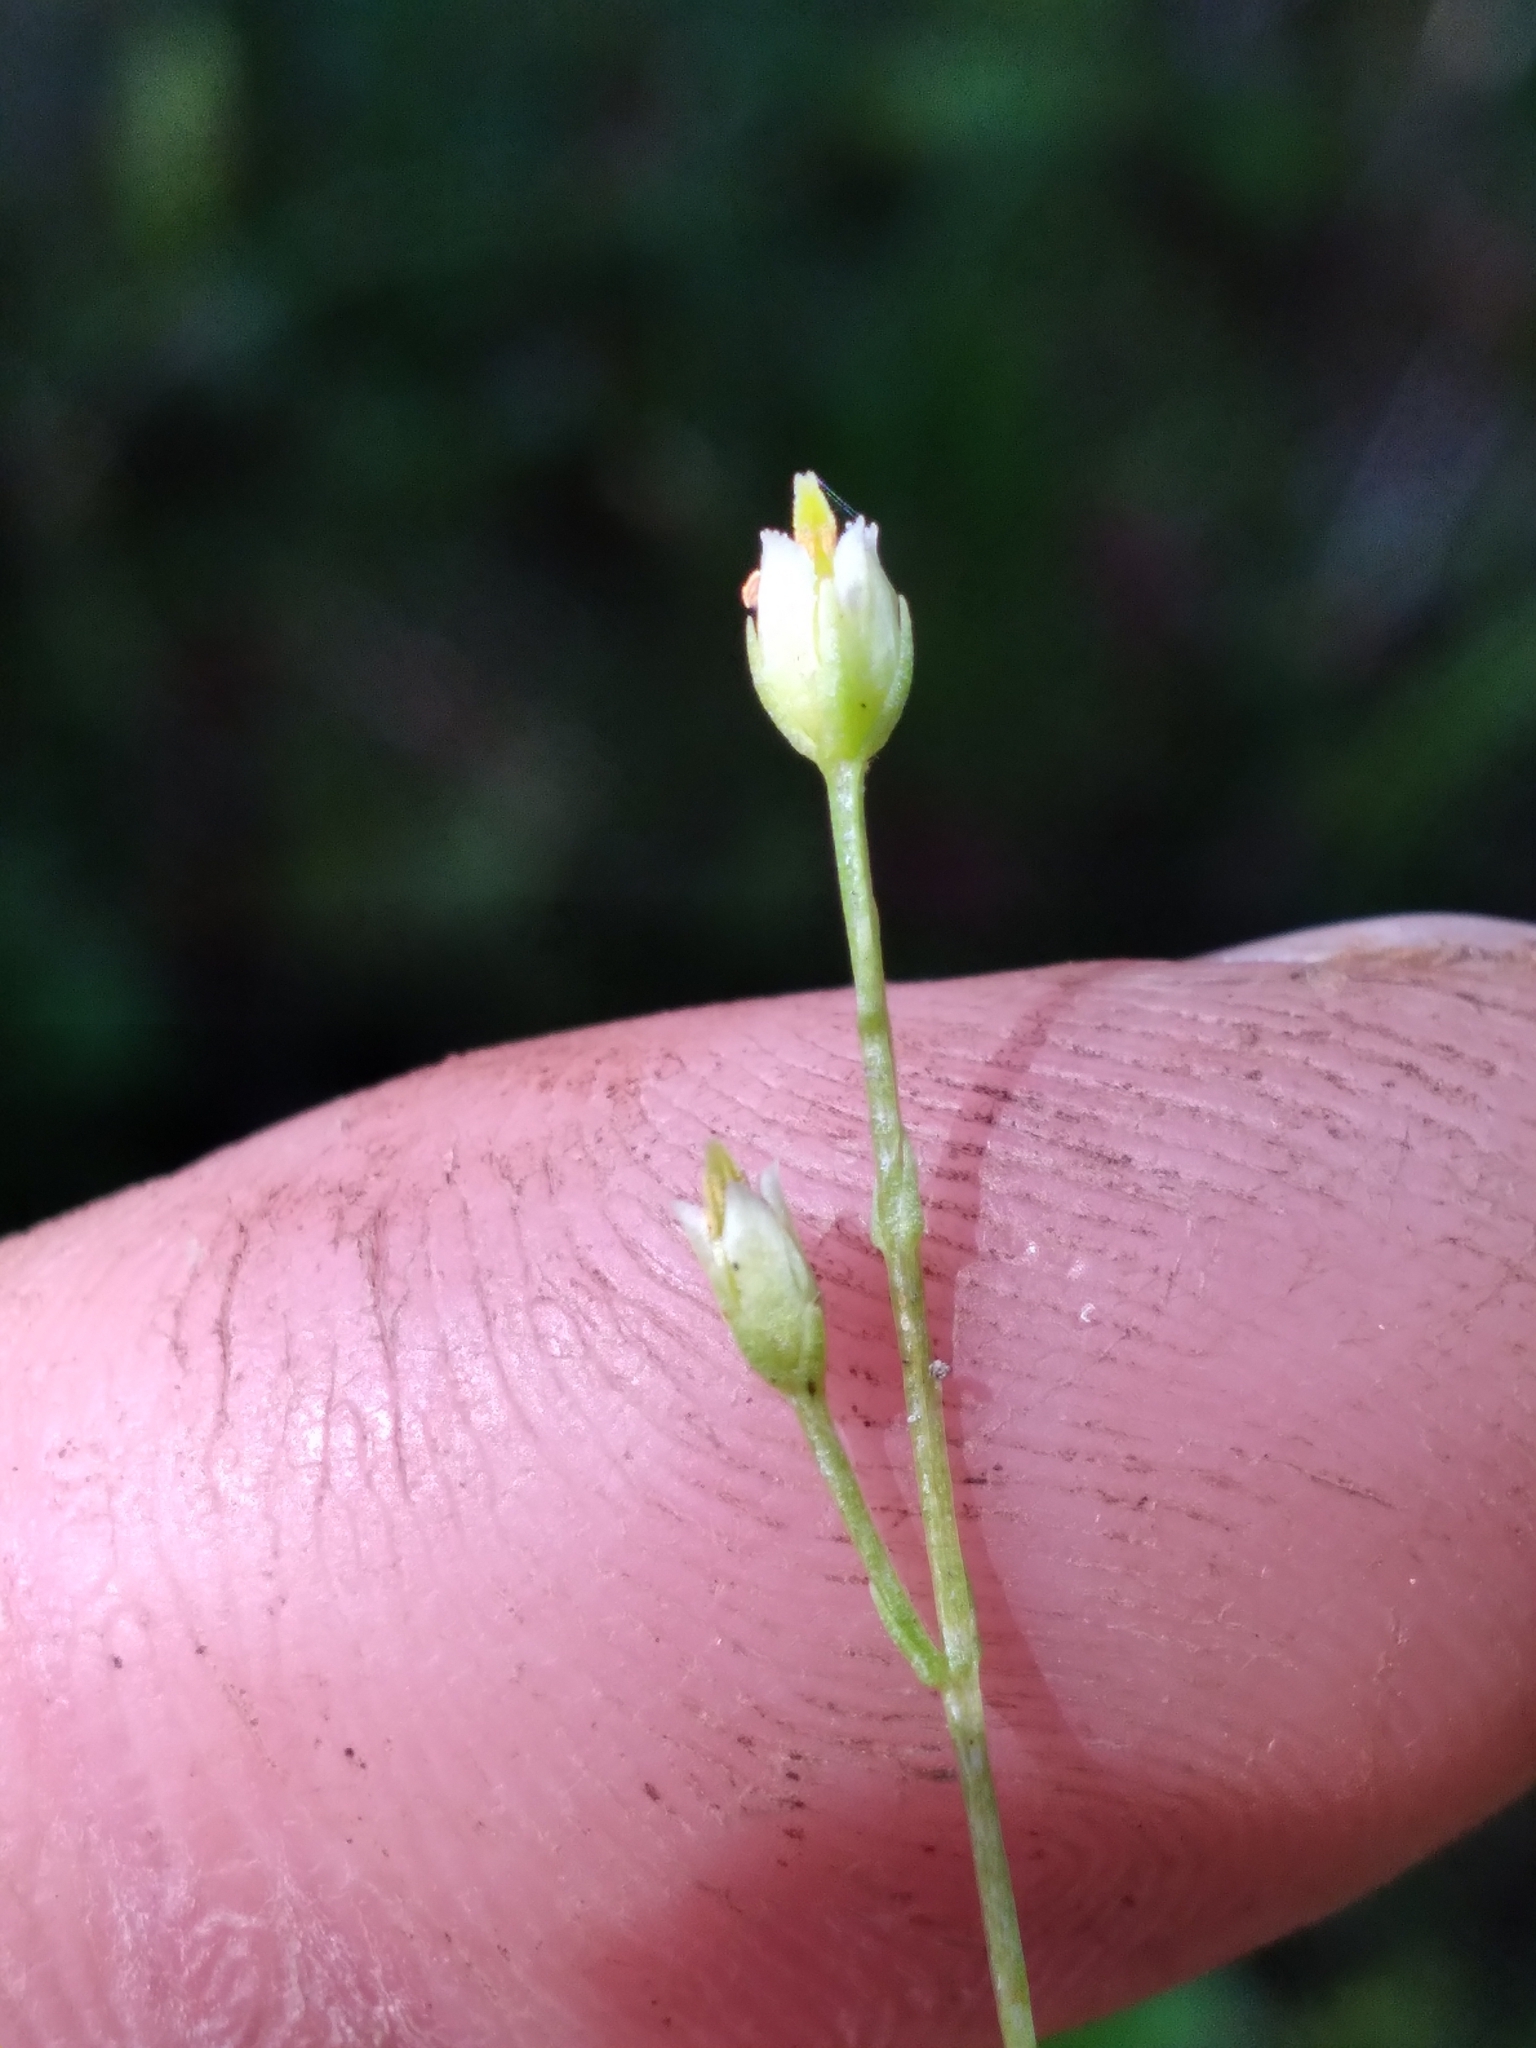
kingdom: Plantae
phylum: Tracheophyta
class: Magnoliopsida
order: Gentianales
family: Gentianaceae
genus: Bartonia
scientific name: Bartonia paniculata
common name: Branched bartonia
